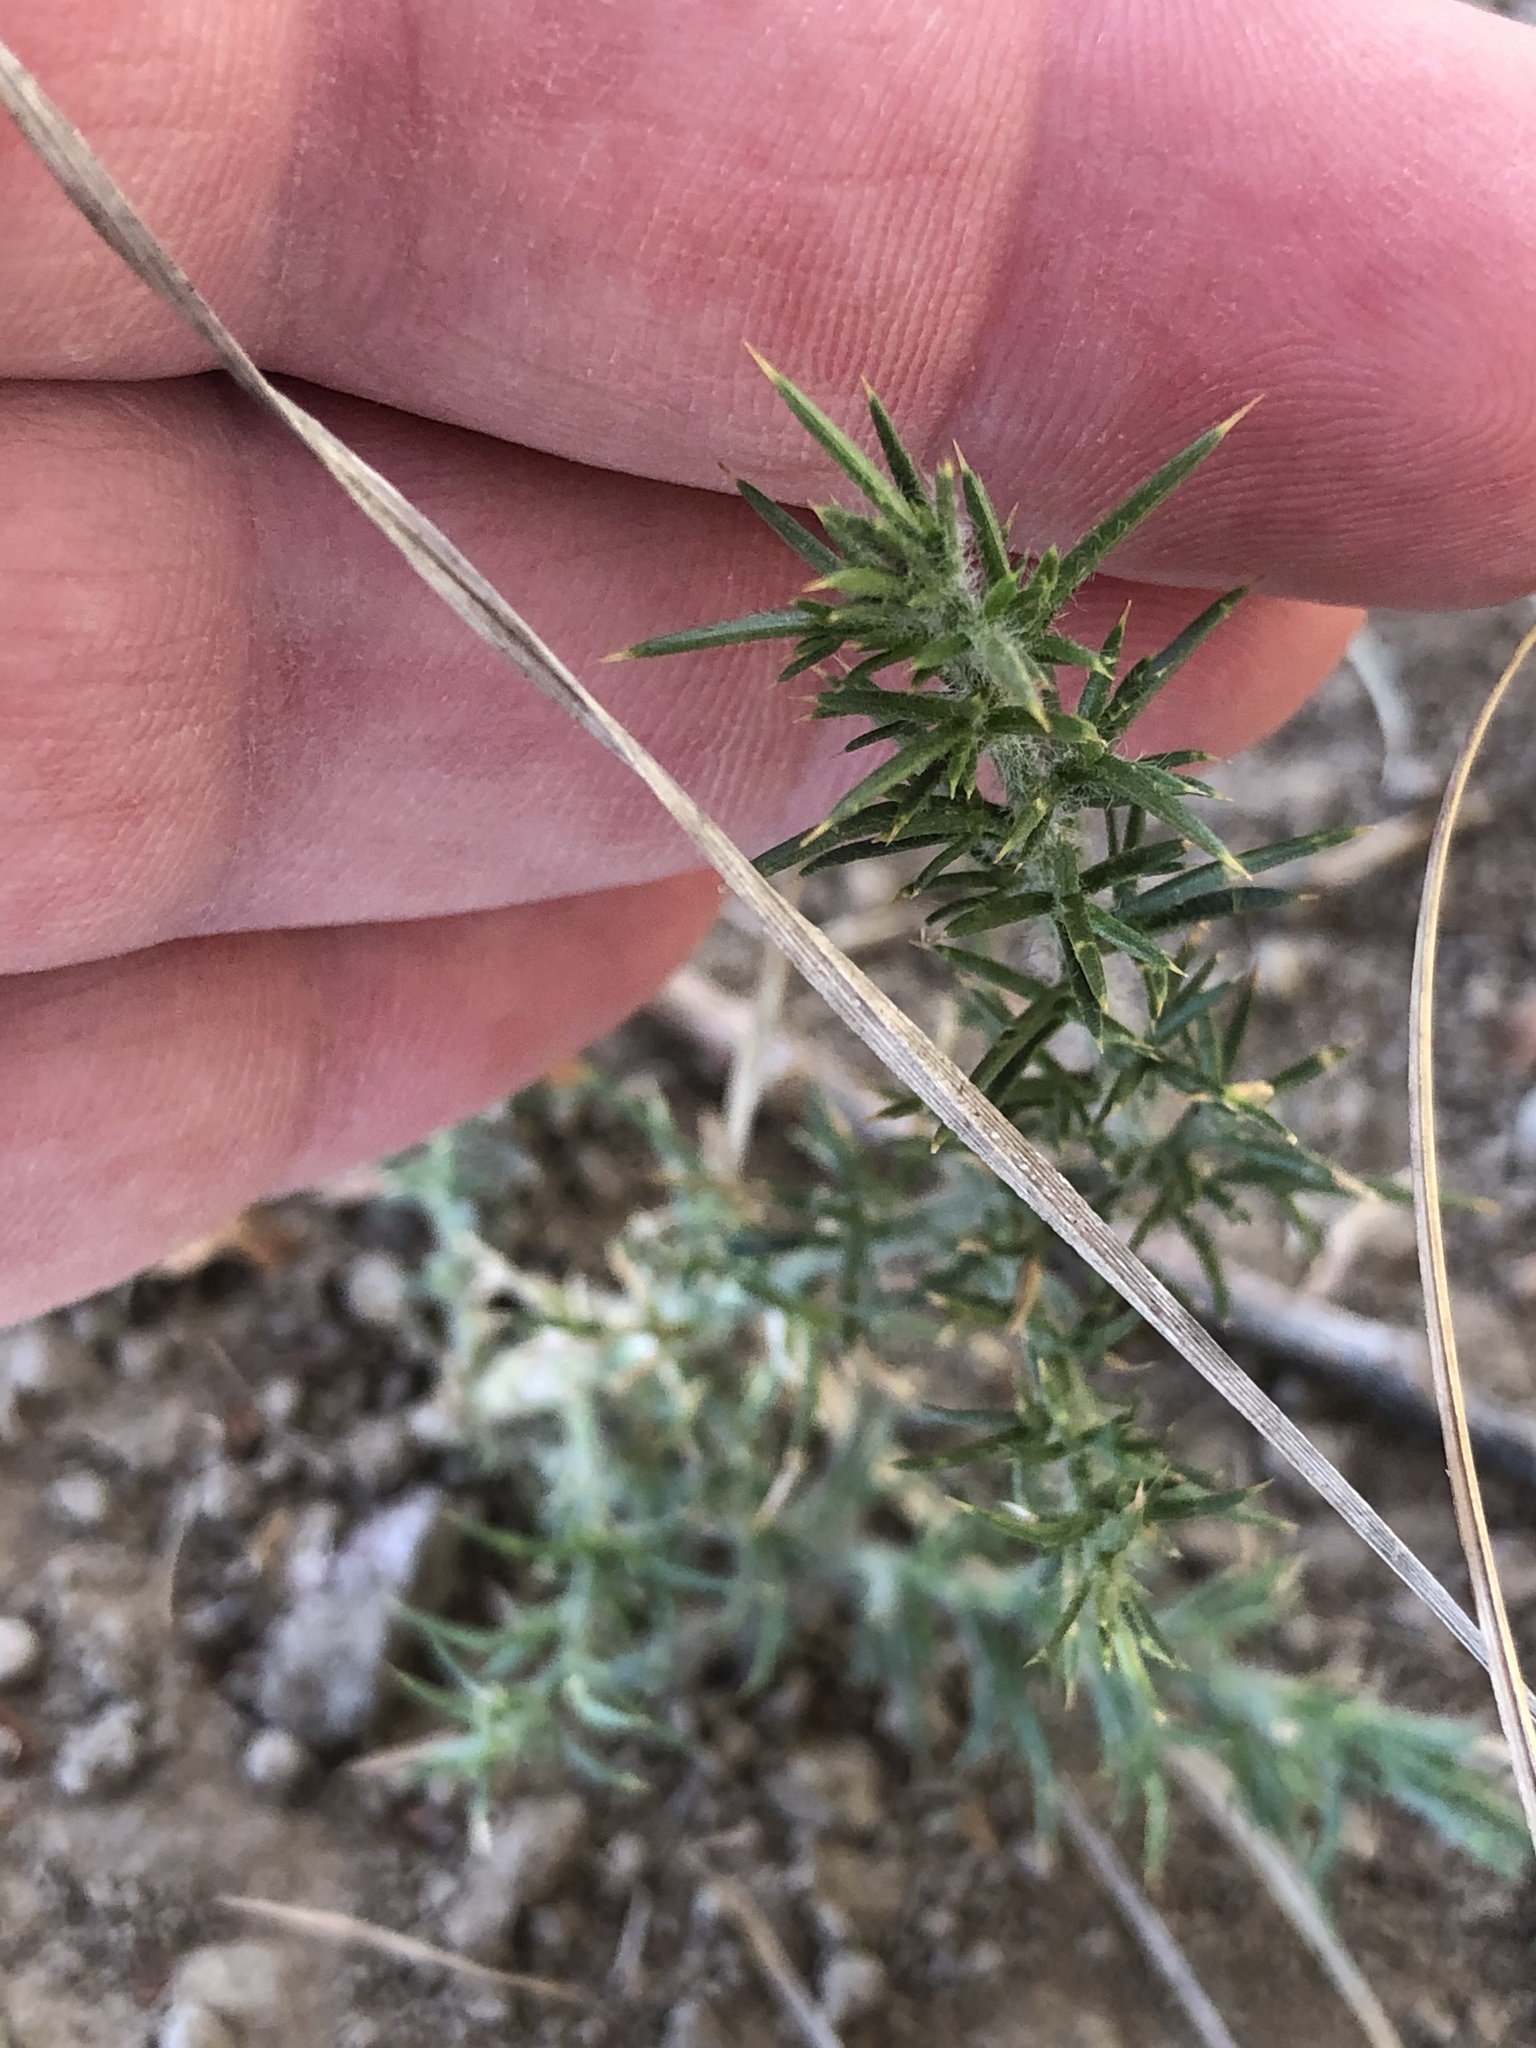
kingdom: Plantae
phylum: Tracheophyta
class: Magnoliopsida
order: Fabales
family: Fabaceae
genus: Ulex
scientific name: Ulex europaeus
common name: Common gorse
